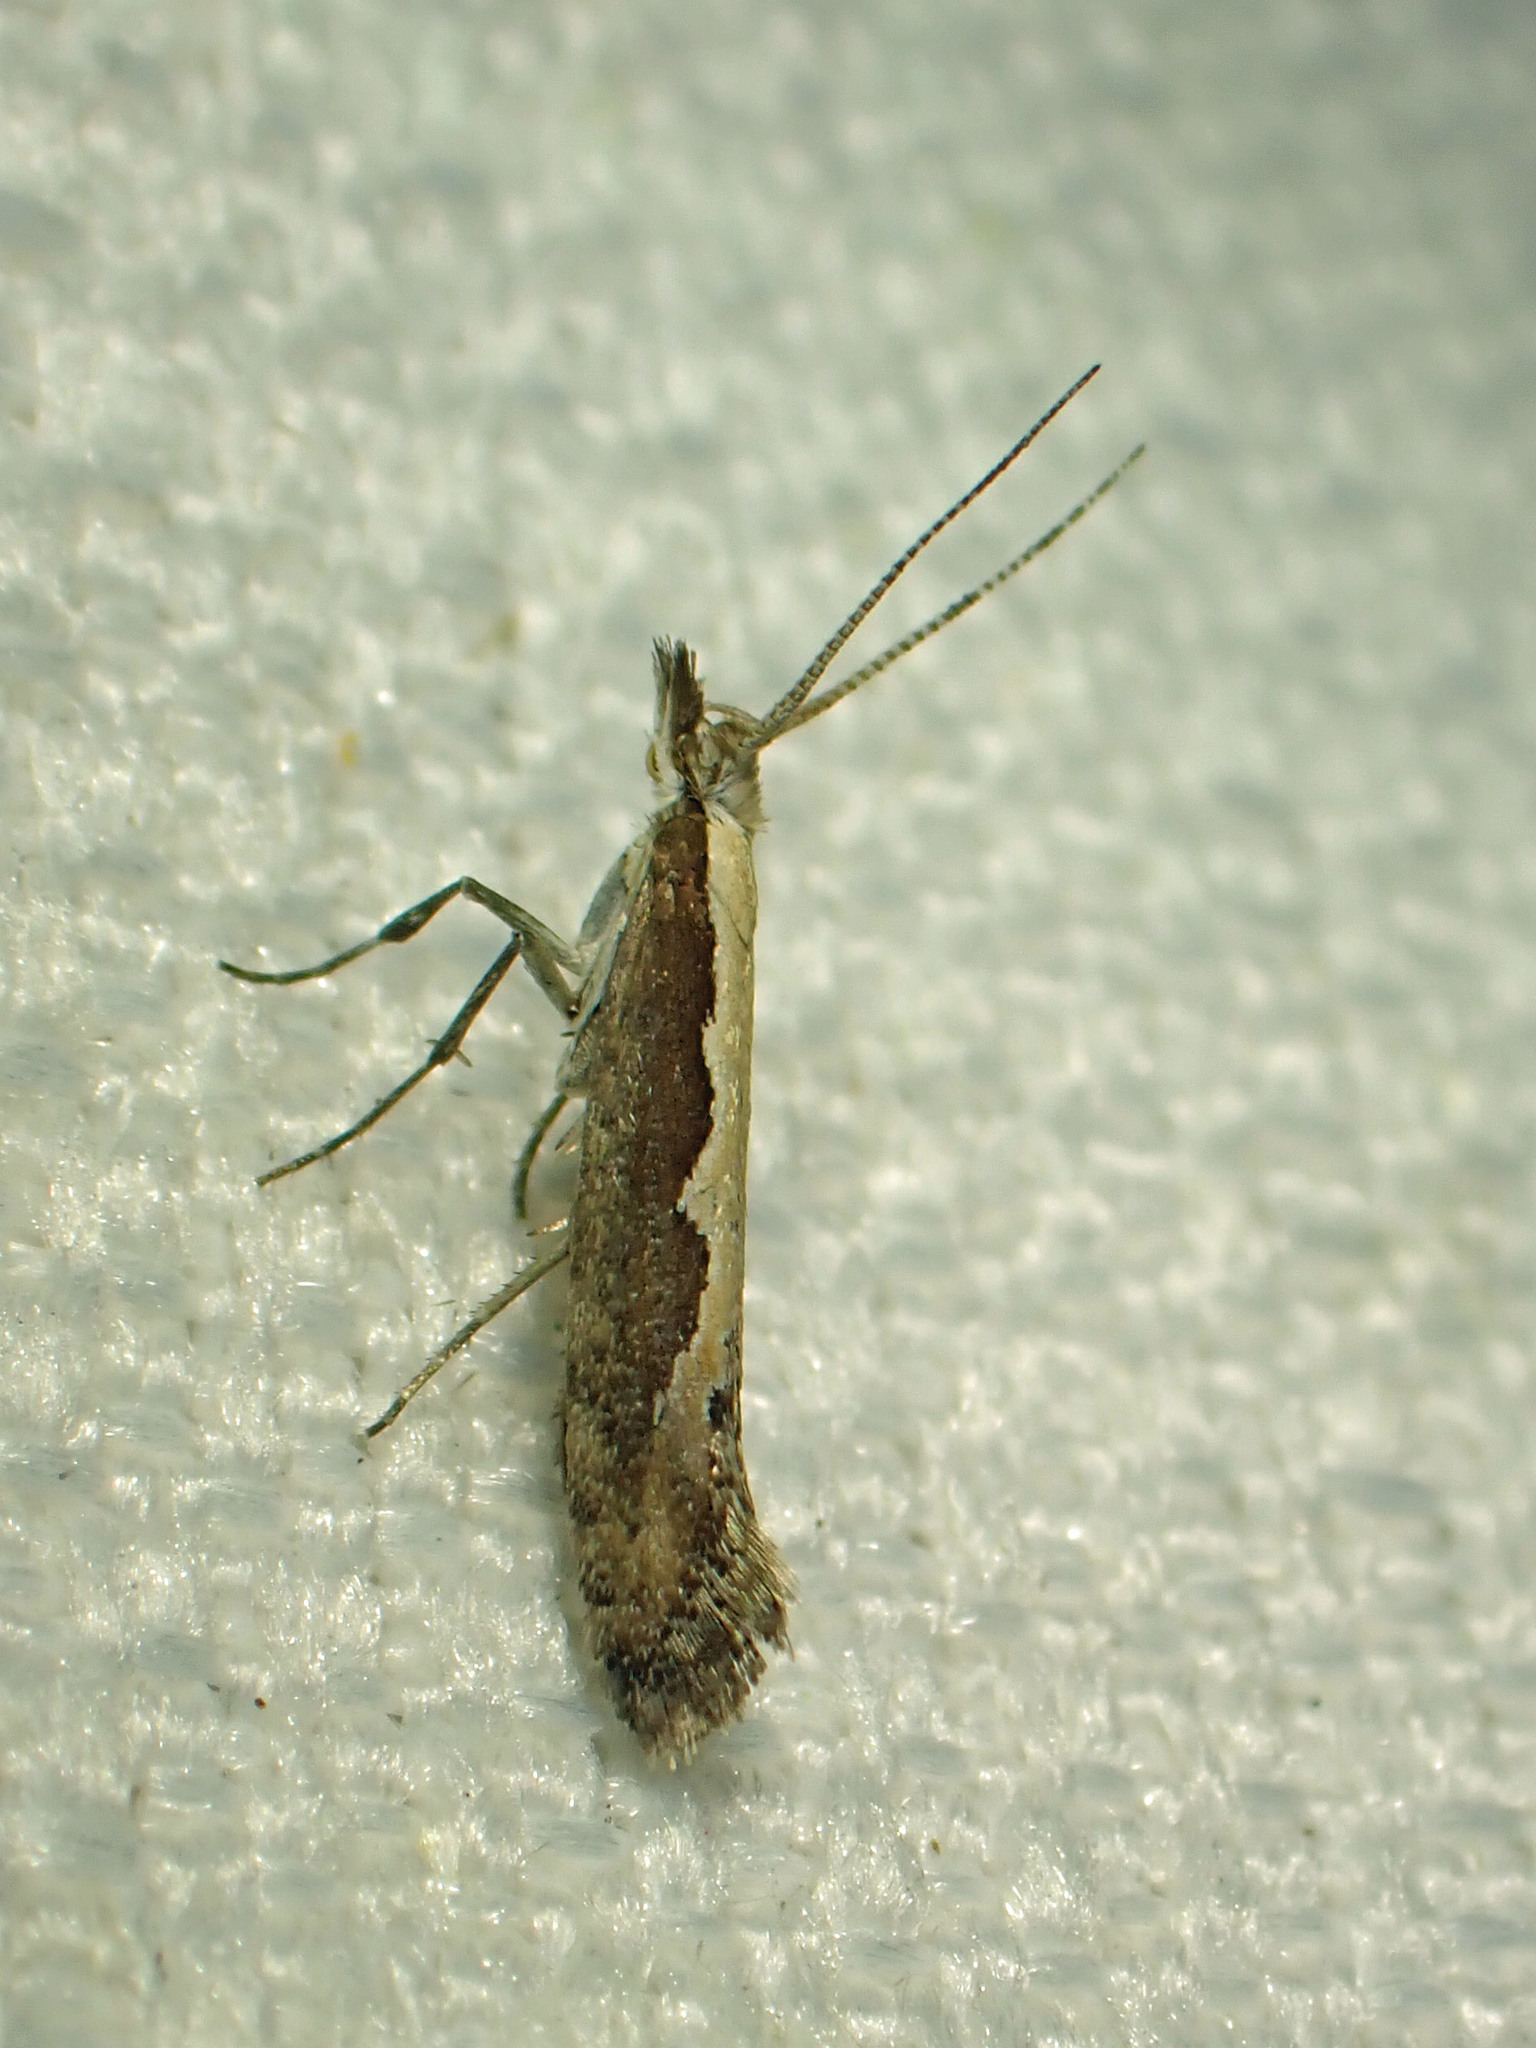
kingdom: Animalia
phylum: Arthropoda
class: Insecta
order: Lepidoptera
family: Plutellidae
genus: Plutella
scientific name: Plutella xylostella
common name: Diamond-back moth
